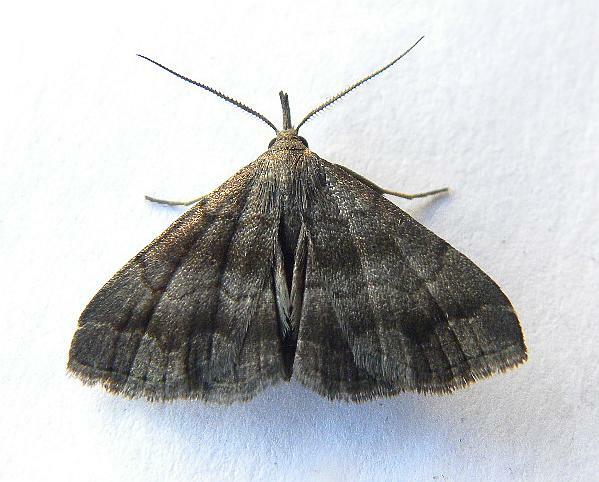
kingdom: Animalia
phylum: Arthropoda
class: Insecta
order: Lepidoptera
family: Erebidae
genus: Phalaenostola
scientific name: Phalaenostola larentioides
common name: Black-banded owlet
